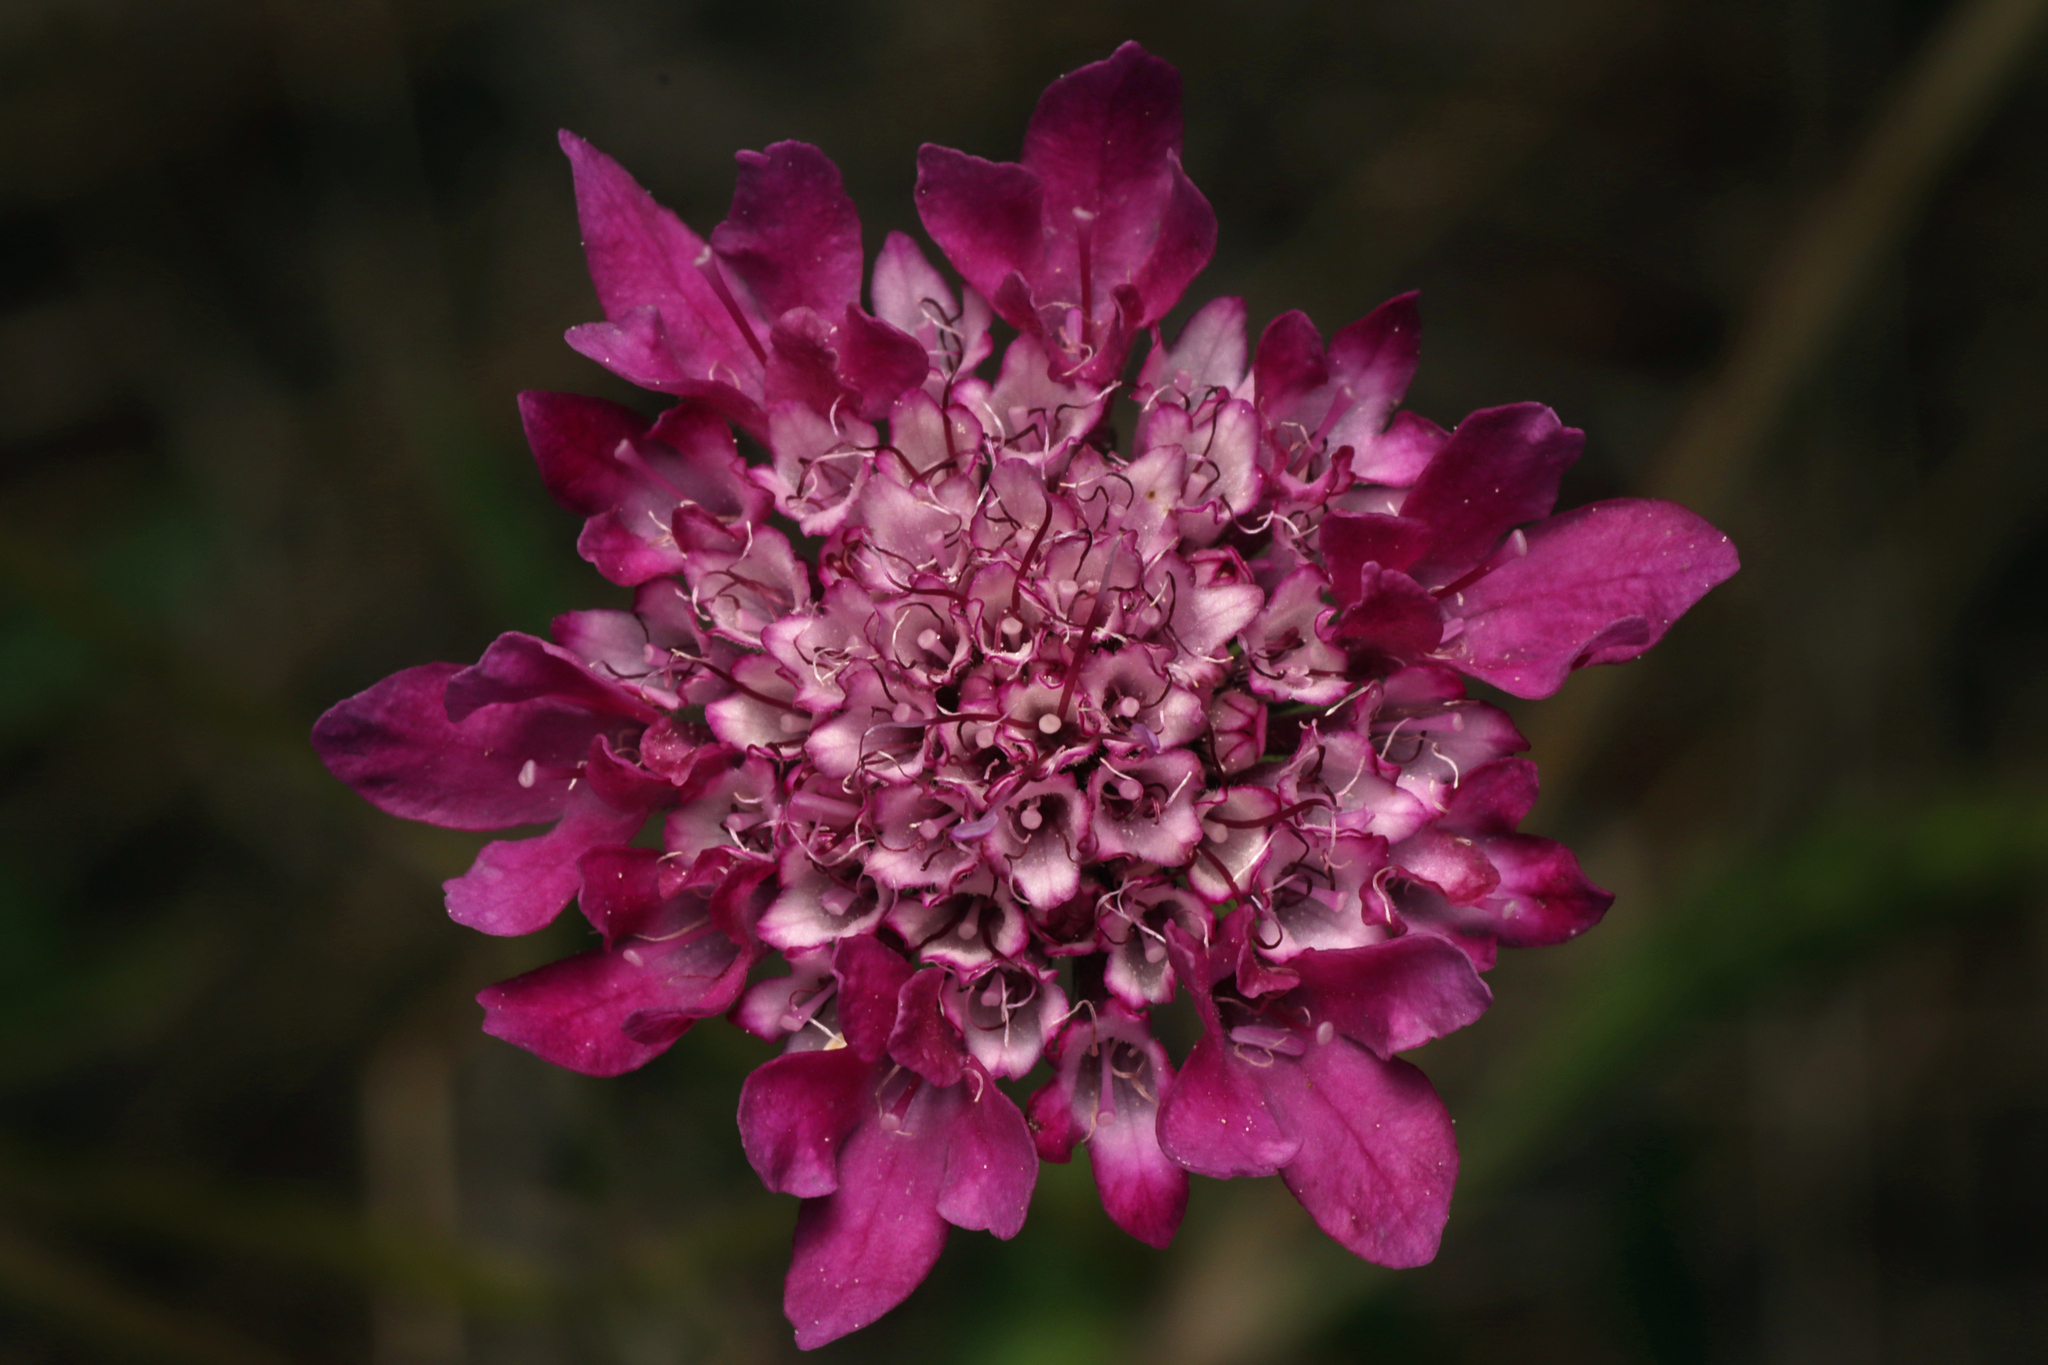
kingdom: Plantae
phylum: Tracheophyta
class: Magnoliopsida
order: Dipsacales
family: Caprifoliaceae
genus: Sixalix
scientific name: Sixalix atropurpurea
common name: Sweet scabious
